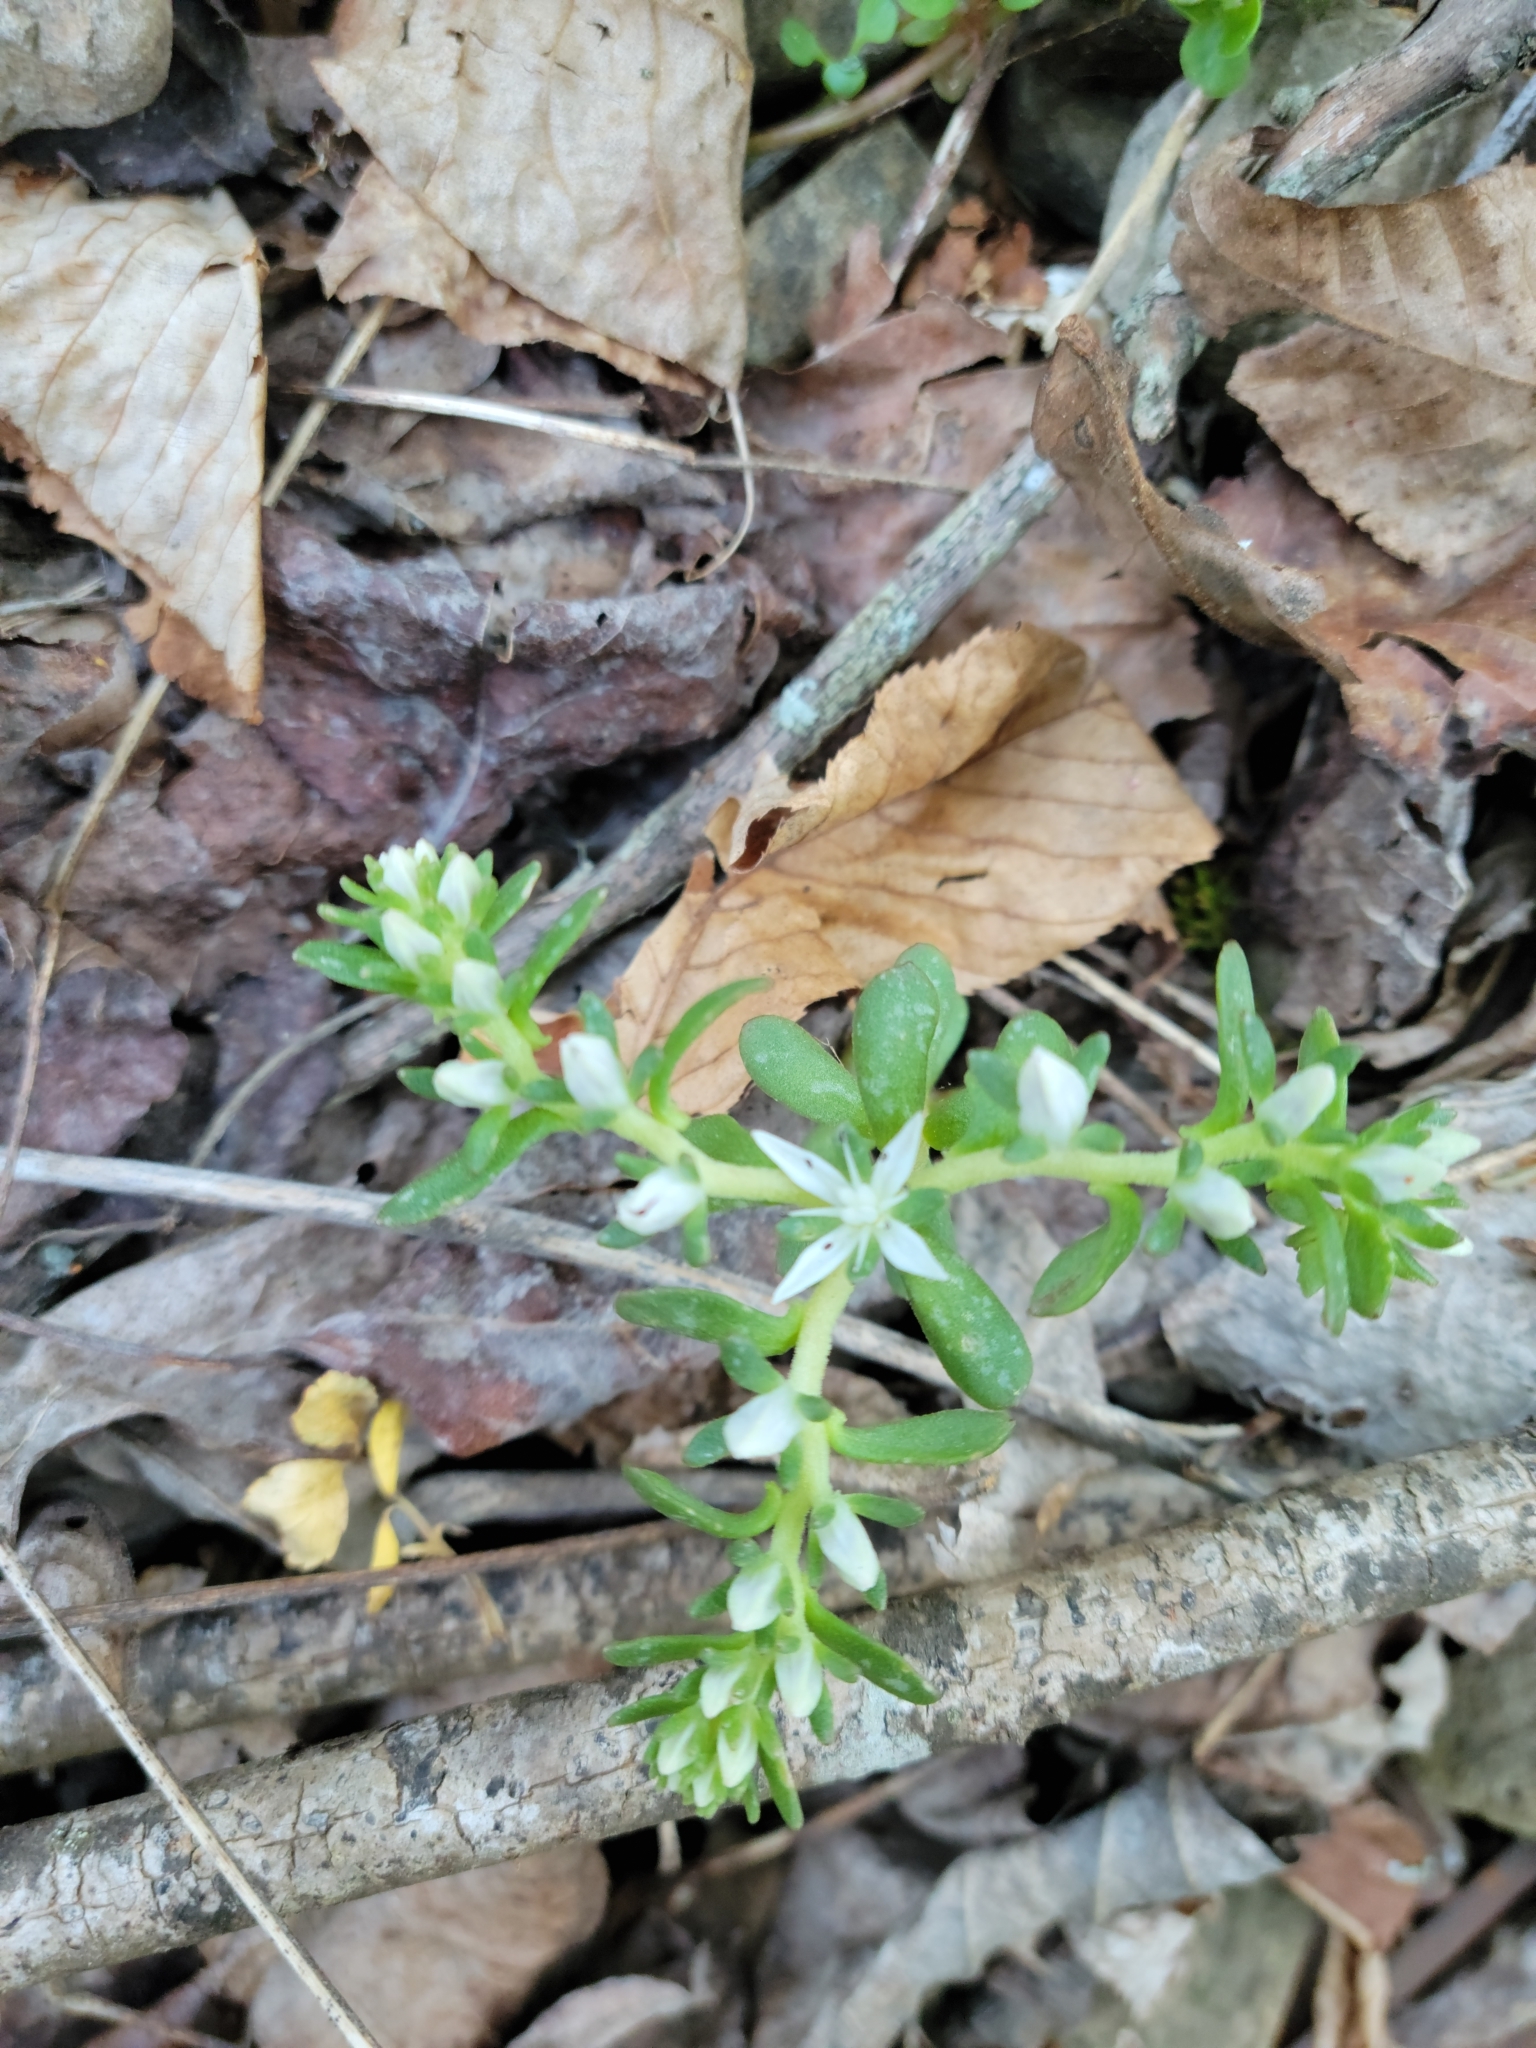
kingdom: Plantae
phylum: Tracheophyta
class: Magnoliopsida
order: Saxifragales
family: Crassulaceae
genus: Sedum
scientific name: Sedum ternatum
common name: Wild stonecrop
